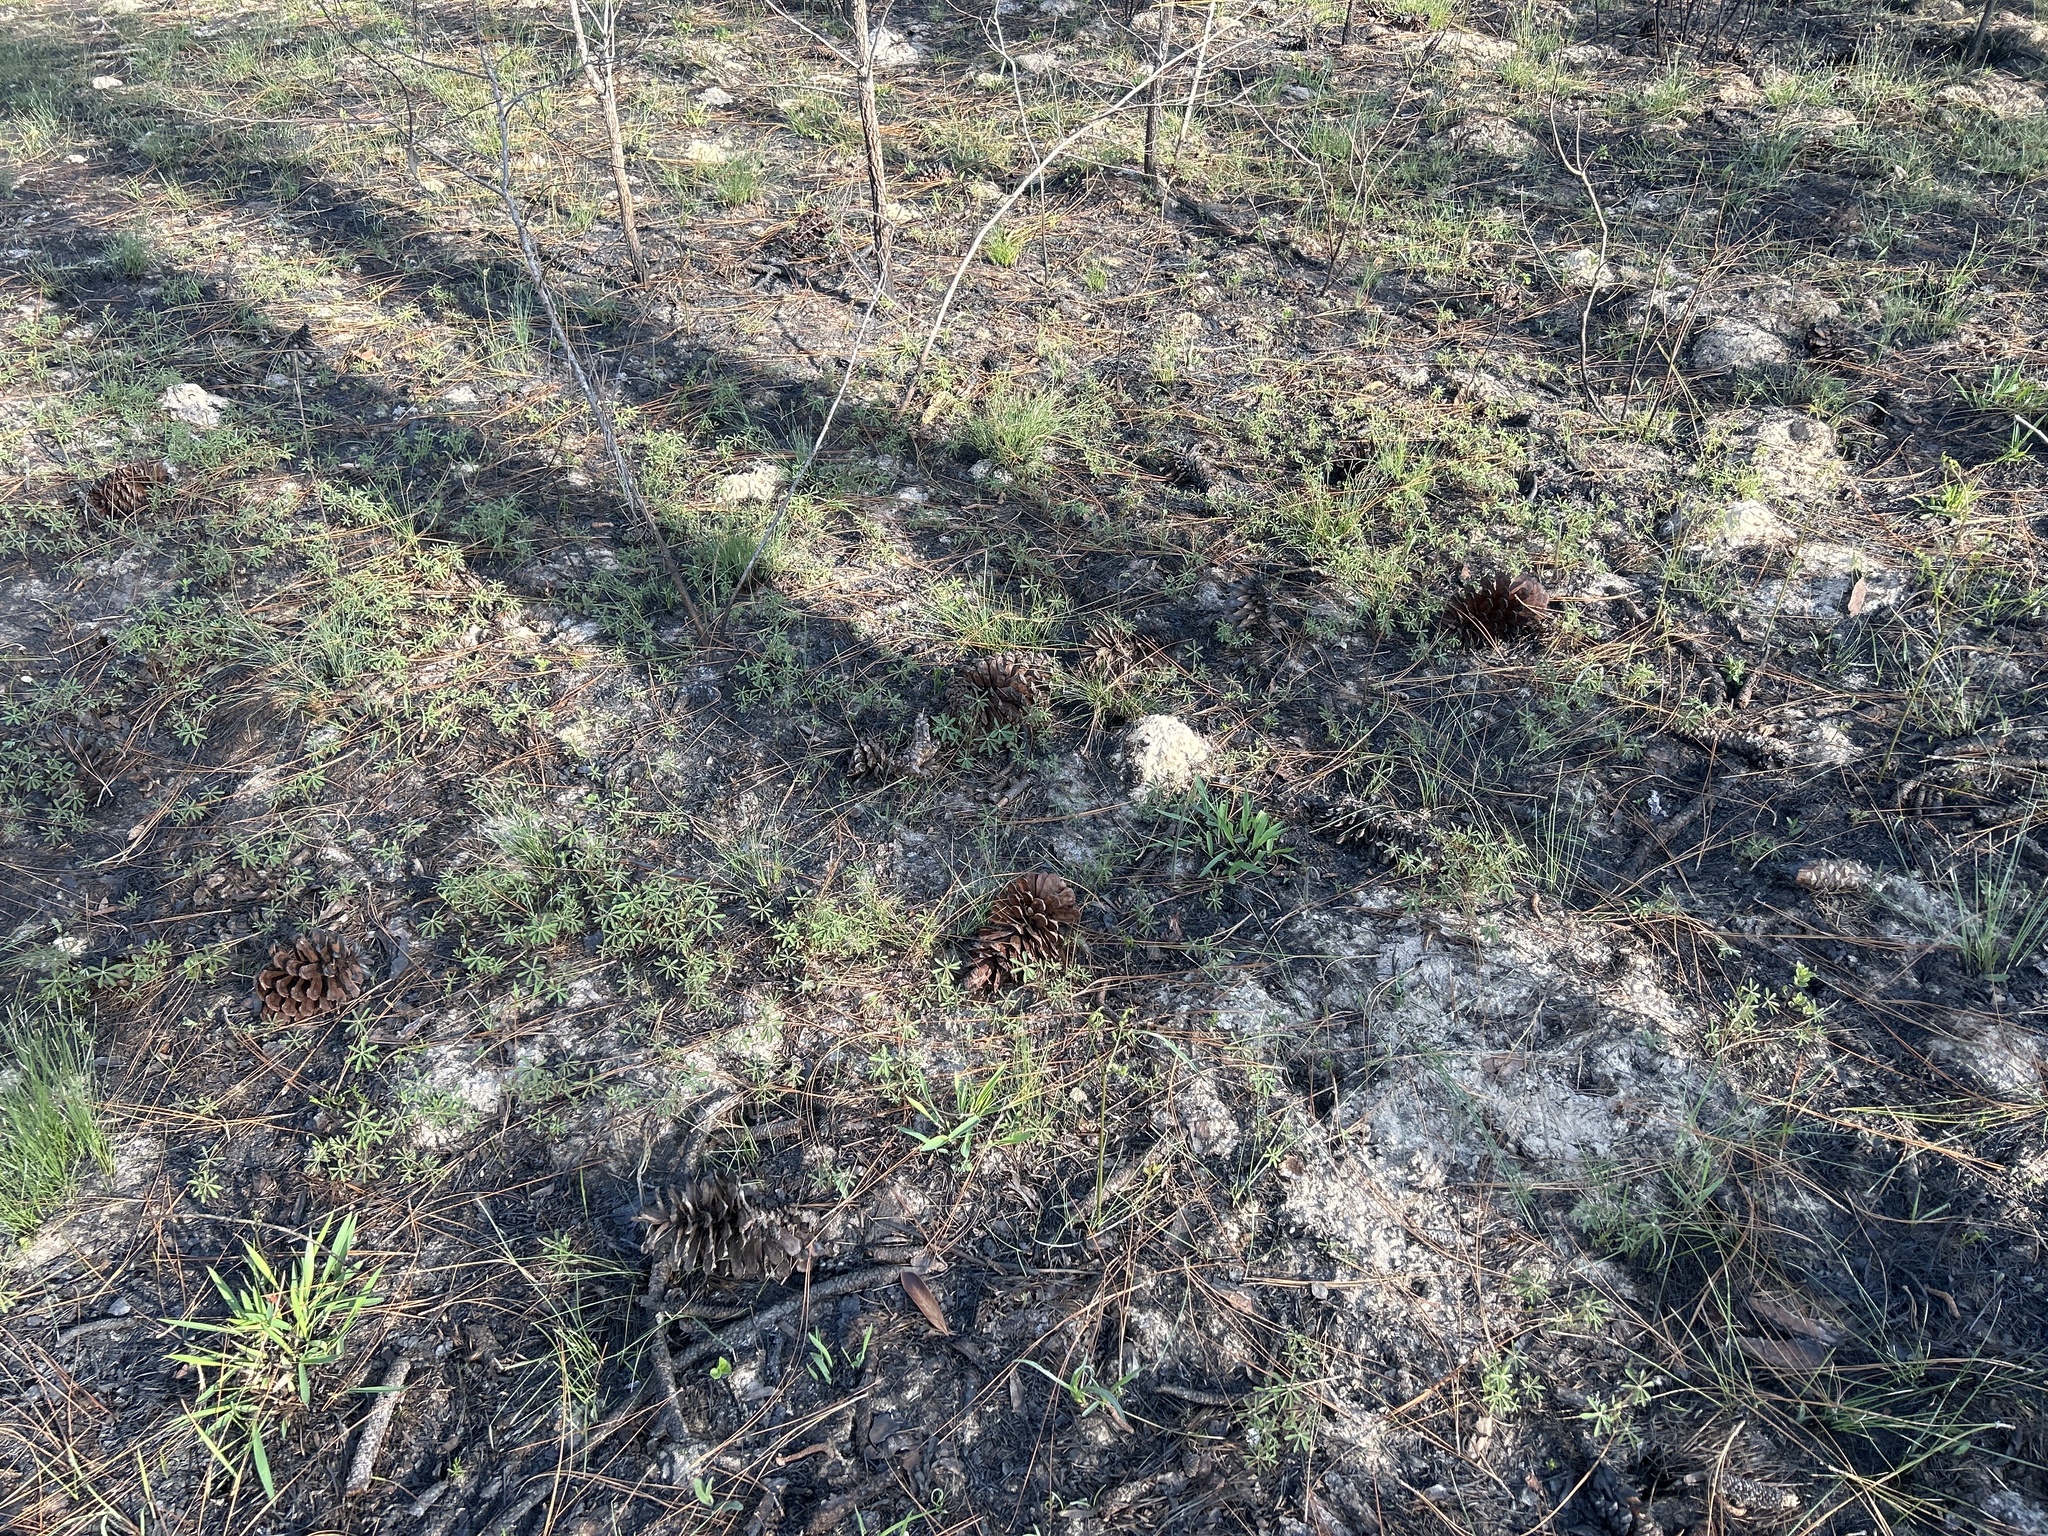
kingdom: Plantae
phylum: Tracheophyta
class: Magnoliopsida
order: Fabales
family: Fabaceae
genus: Lupinus
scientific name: Lupinus perennis
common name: Sundial lupine
